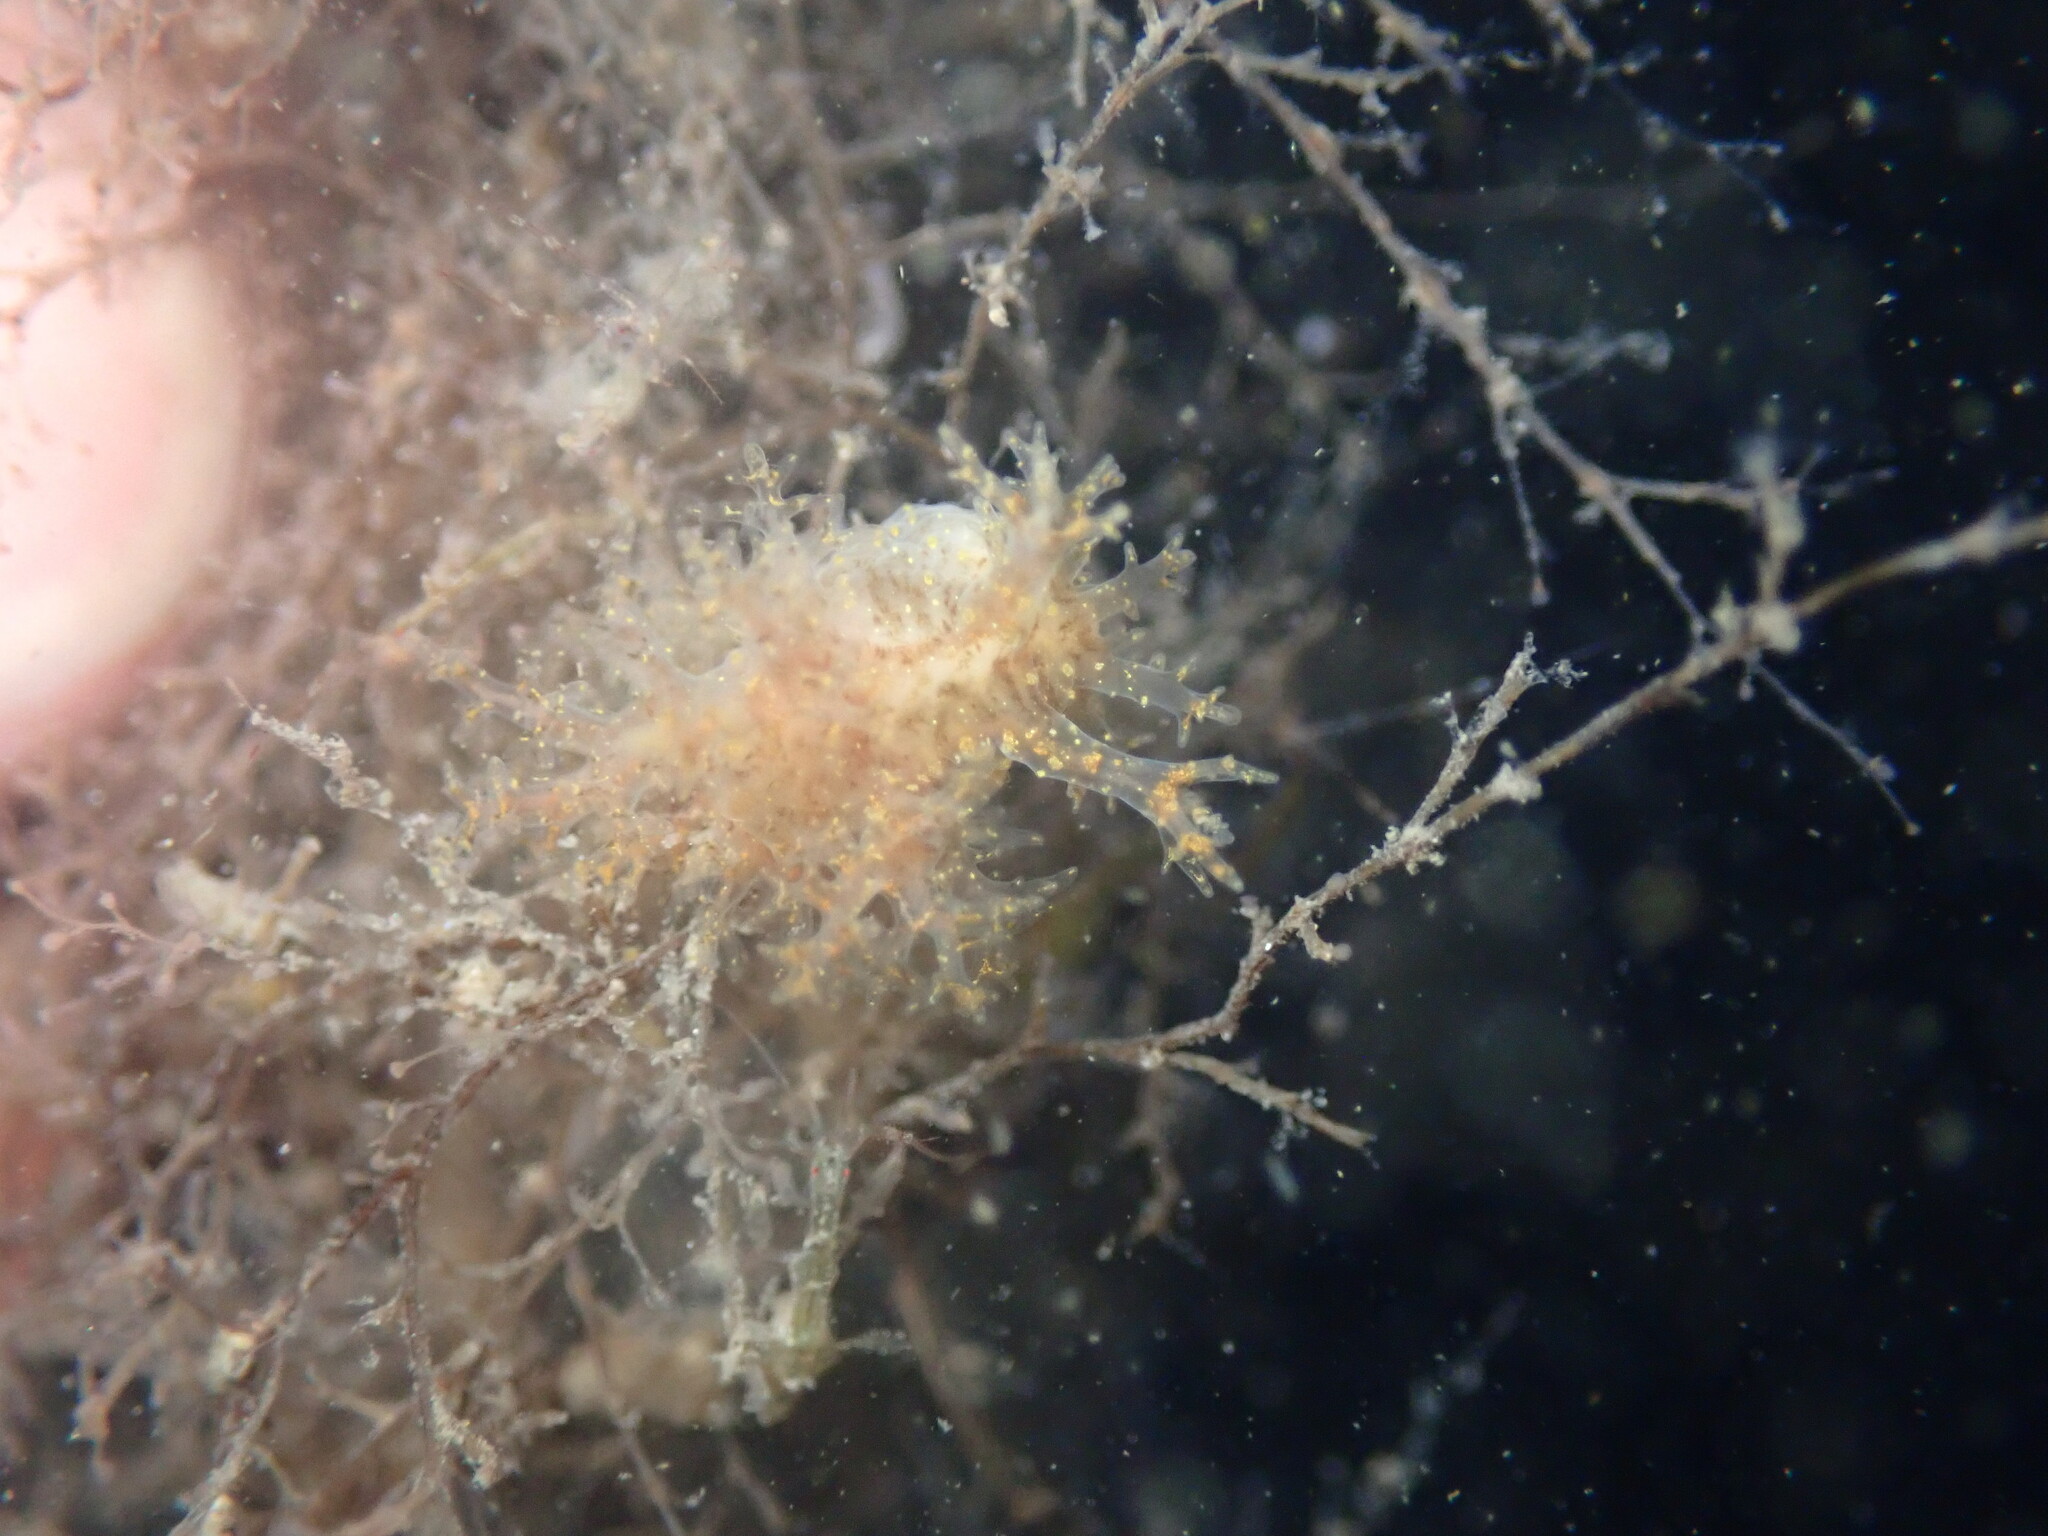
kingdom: Animalia
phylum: Mollusca
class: Gastropoda
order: Nudibranchia
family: Dendronotidae
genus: Dendronotus
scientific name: Dendronotus venustus
